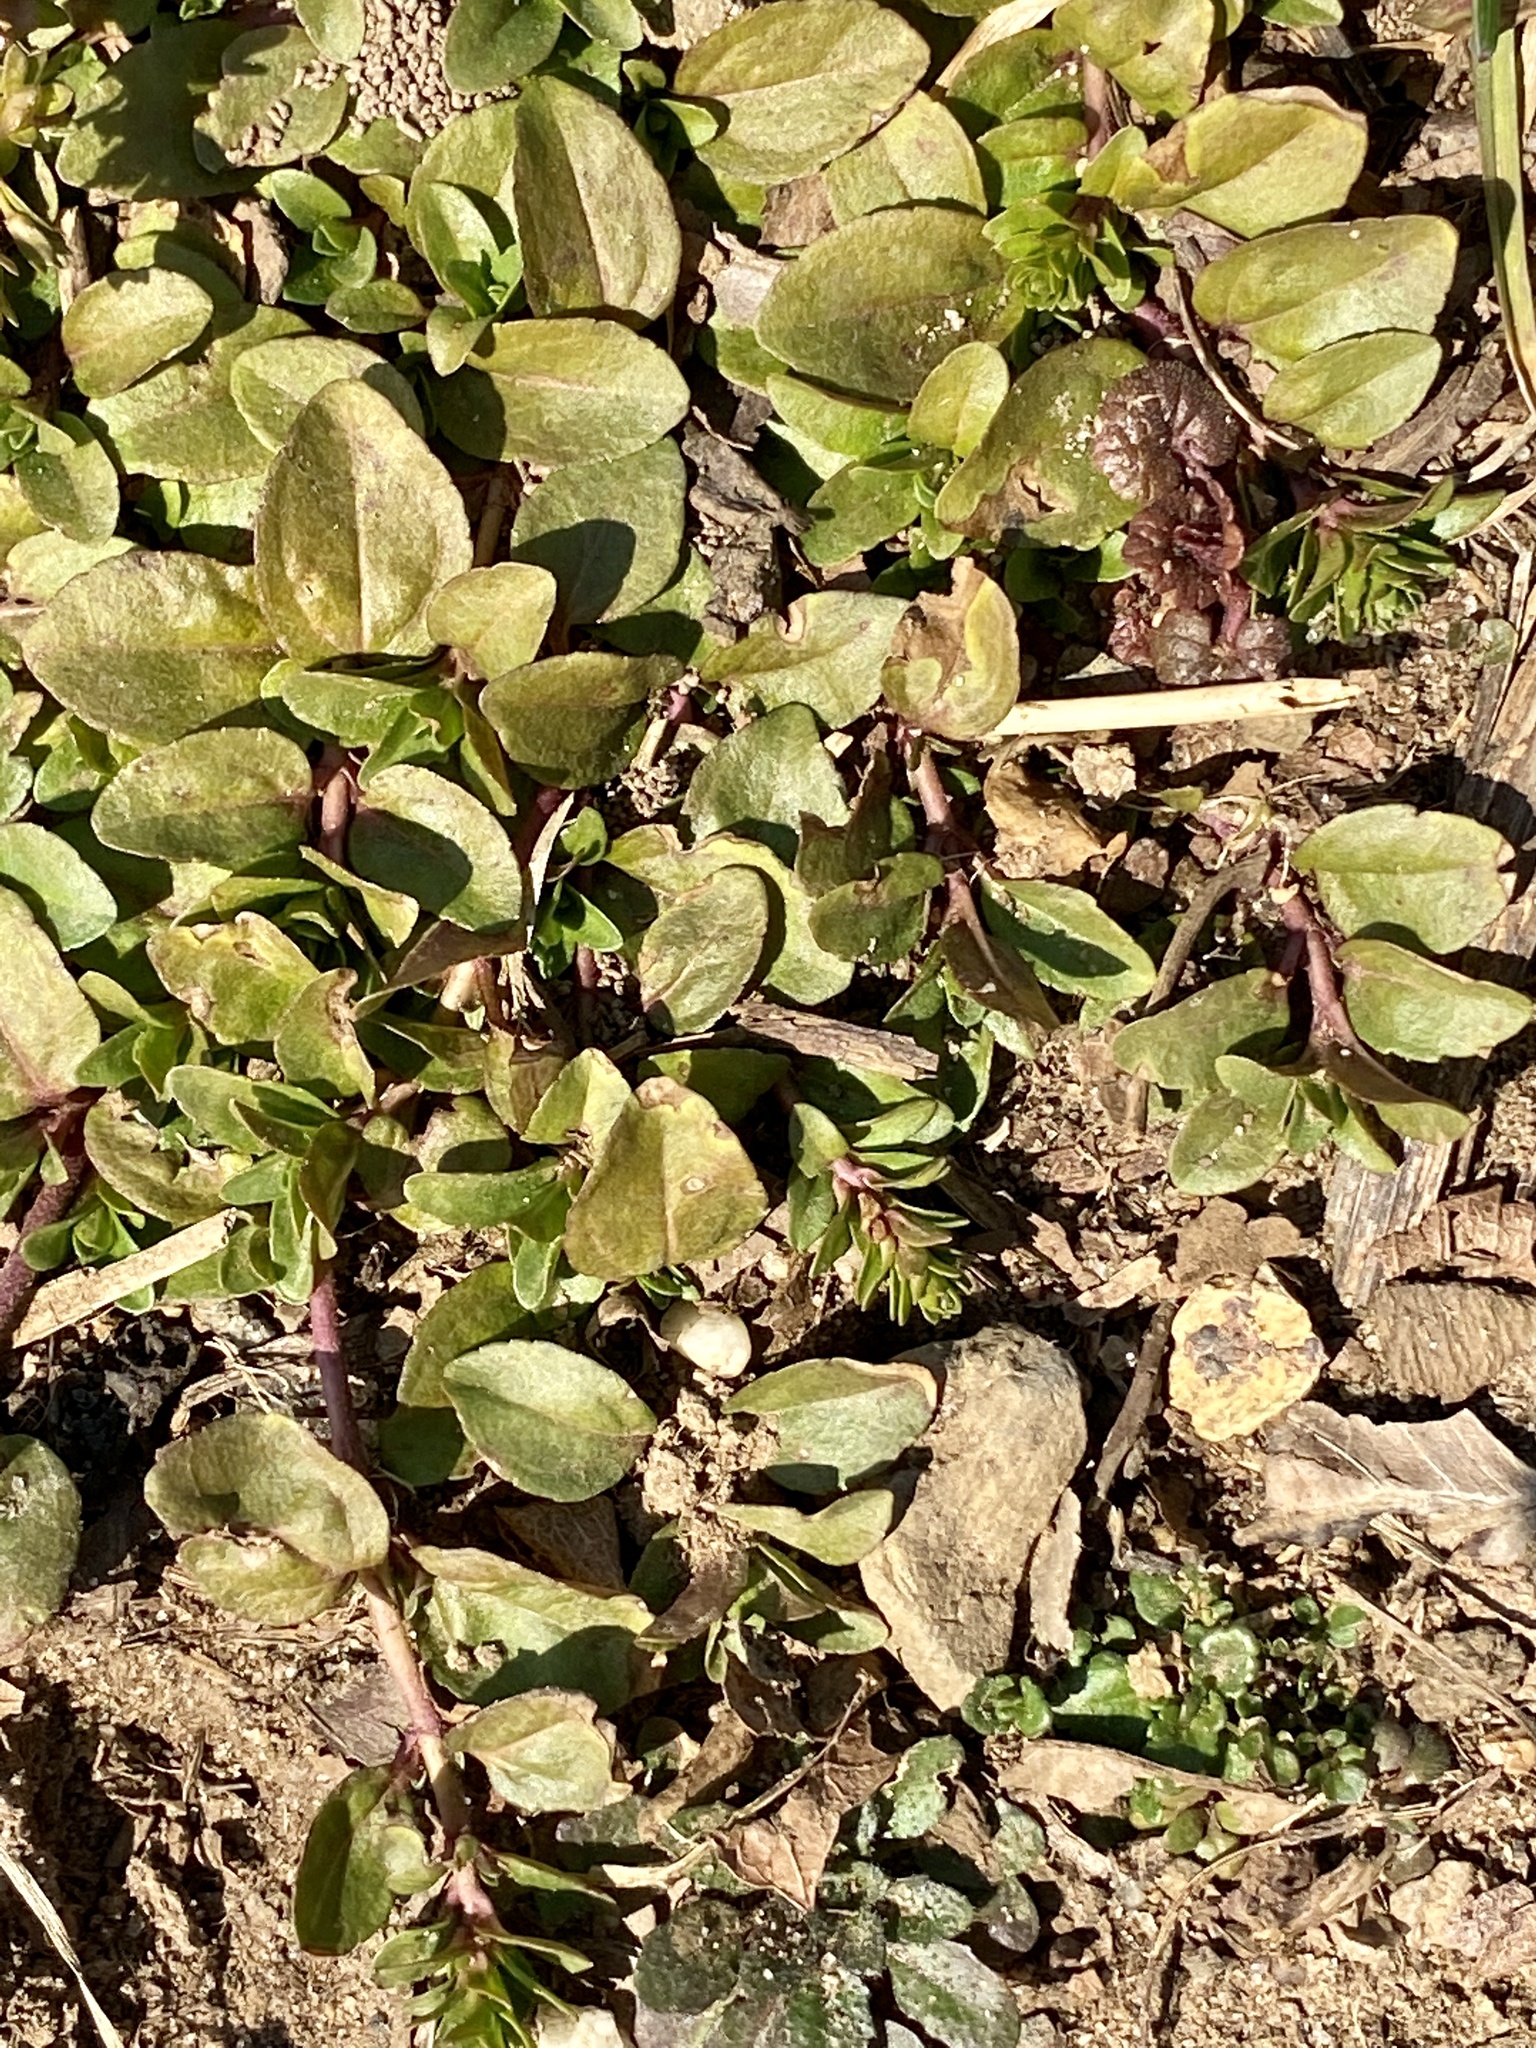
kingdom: Plantae
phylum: Tracheophyta
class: Magnoliopsida
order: Lamiales
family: Plantaginaceae
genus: Veronica
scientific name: Veronica serpyllifolia
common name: Thyme-leaved speedwell
